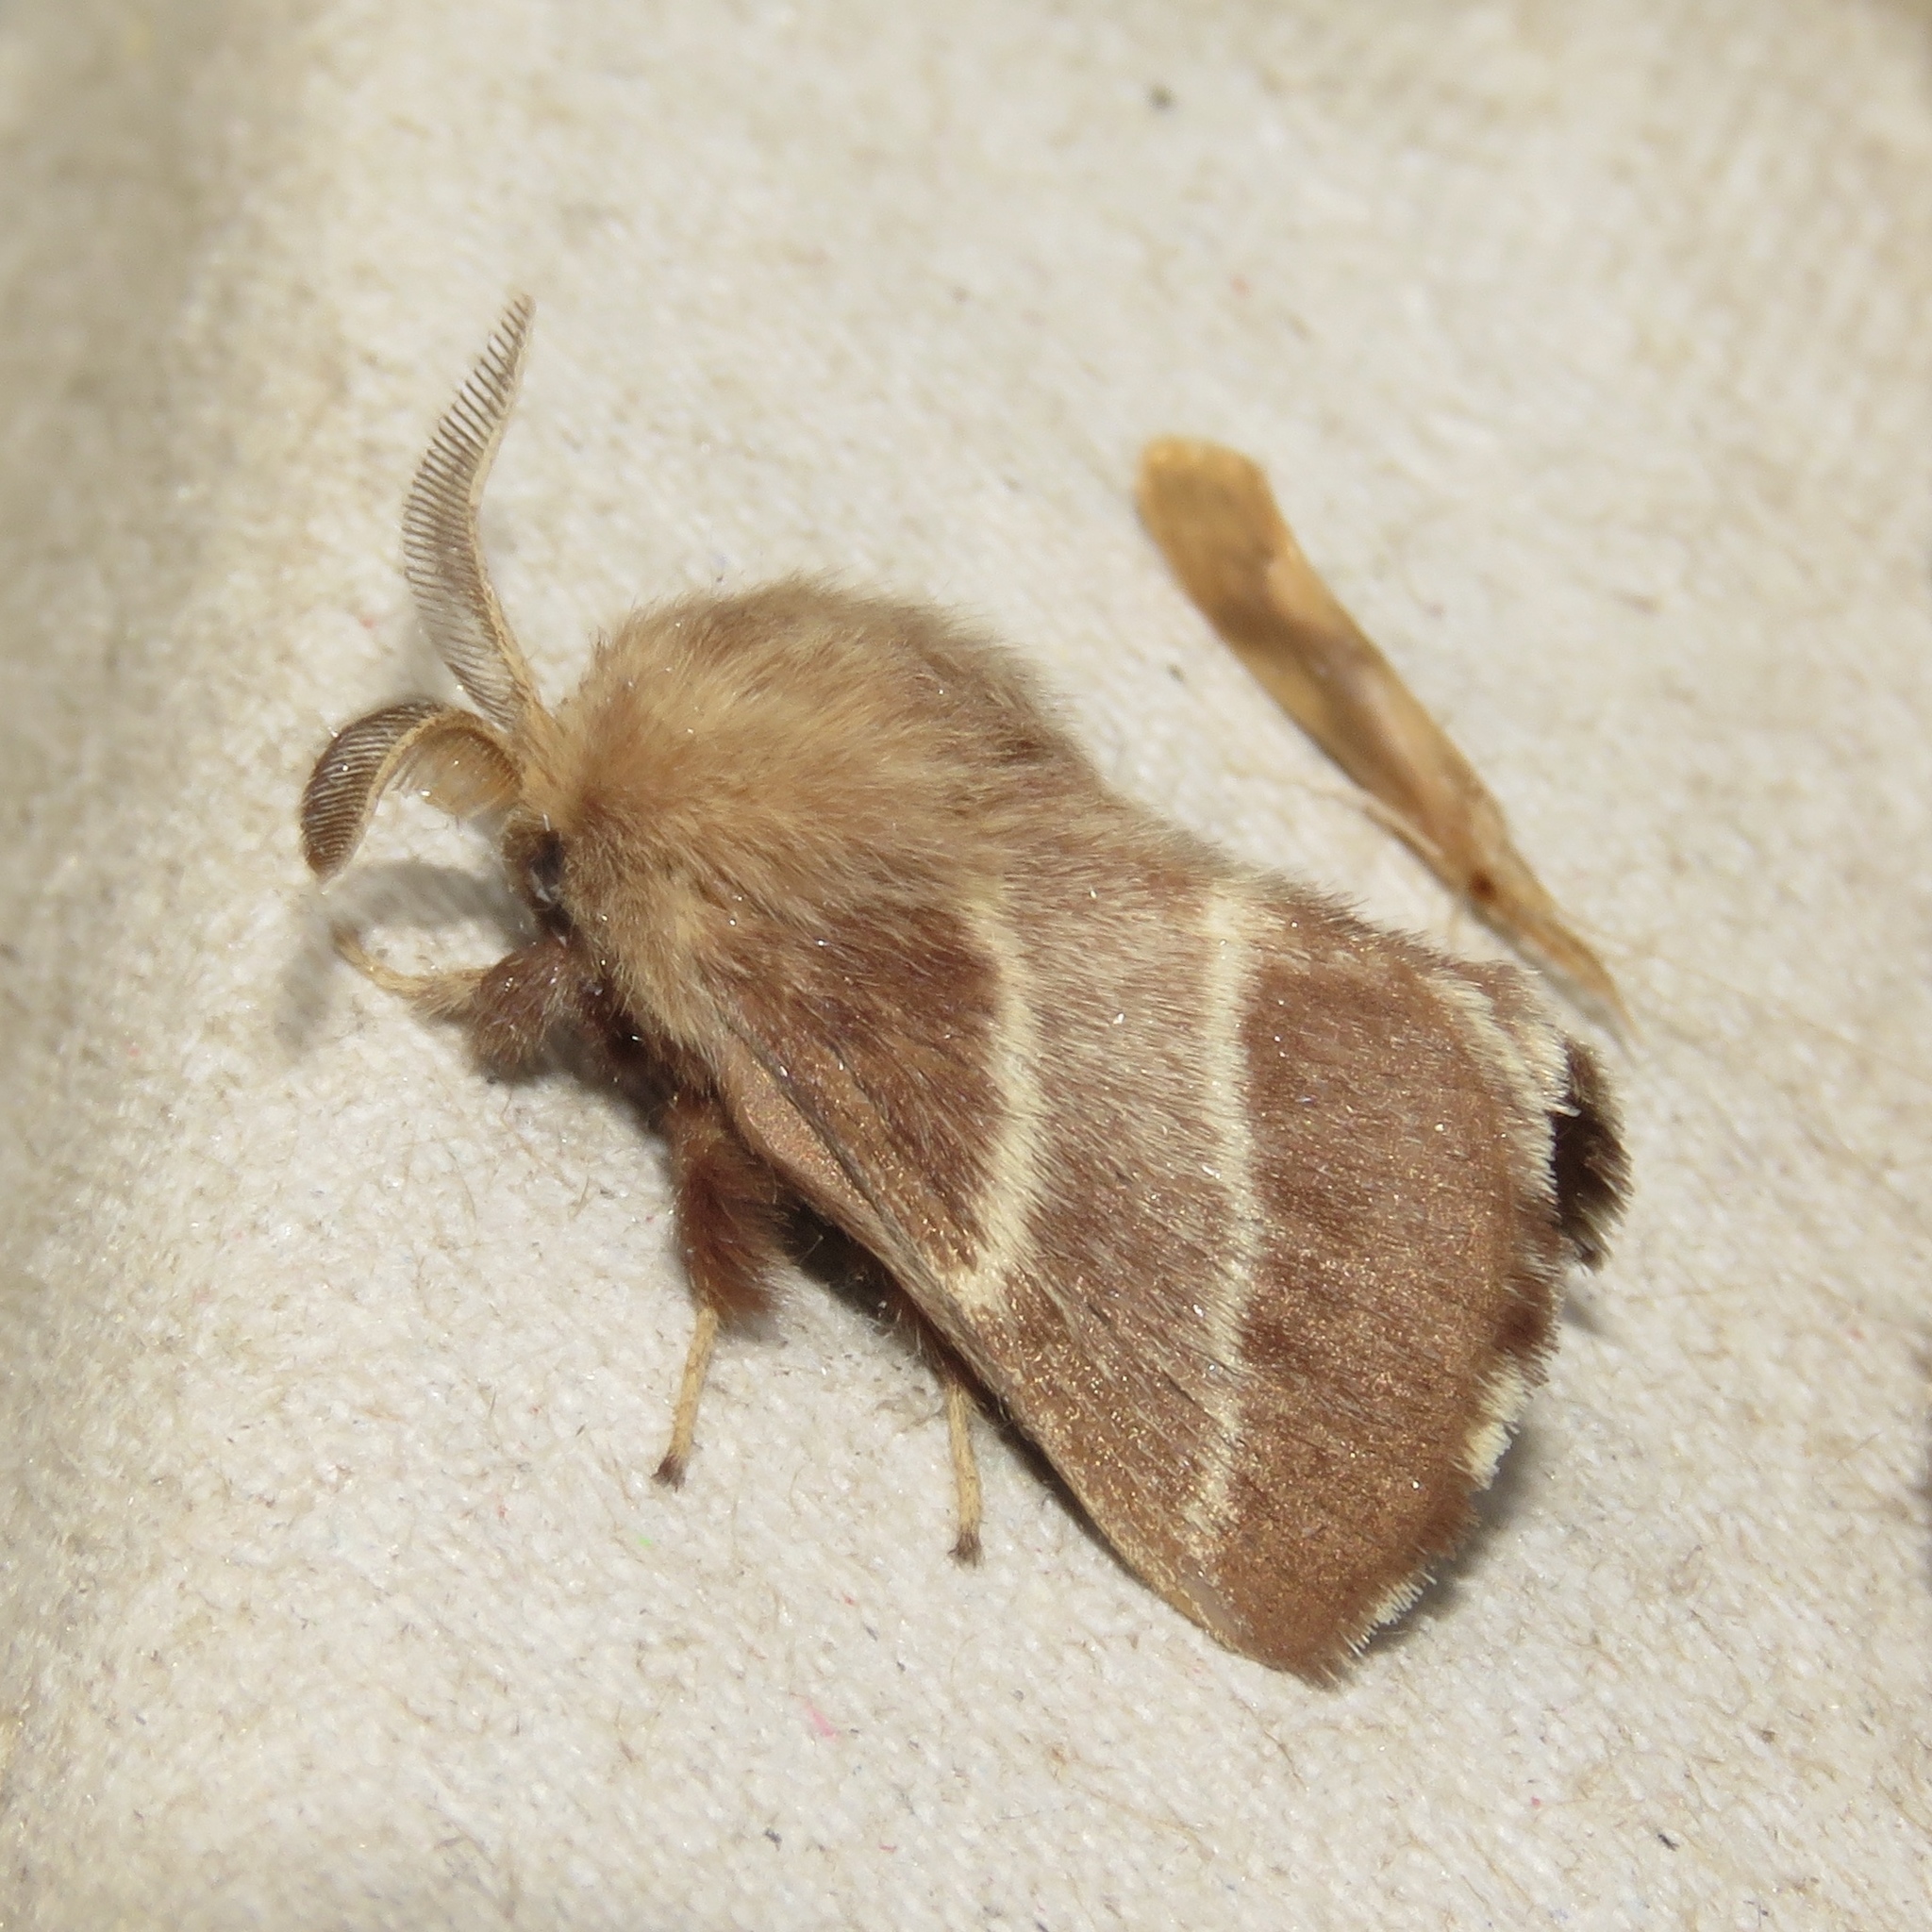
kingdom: Animalia
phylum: Arthropoda
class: Insecta
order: Lepidoptera
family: Lasiocampidae
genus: Malacosoma
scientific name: Malacosoma americana
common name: Eastern tent caterpillar moth
